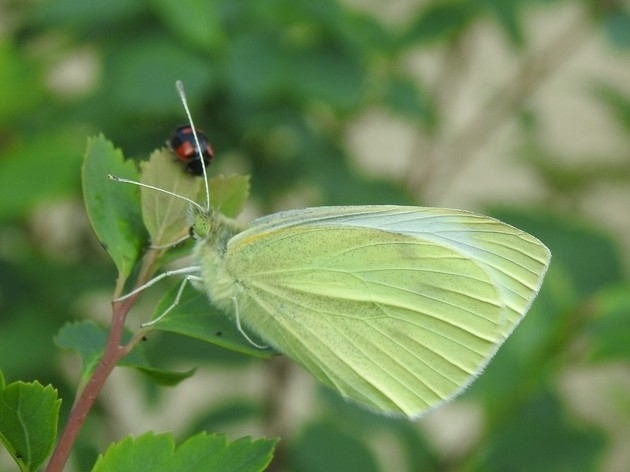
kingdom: Animalia
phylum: Arthropoda
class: Insecta
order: Lepidoptera
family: Pieridae
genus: Pieris
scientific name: Pieris rapae
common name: Small white
